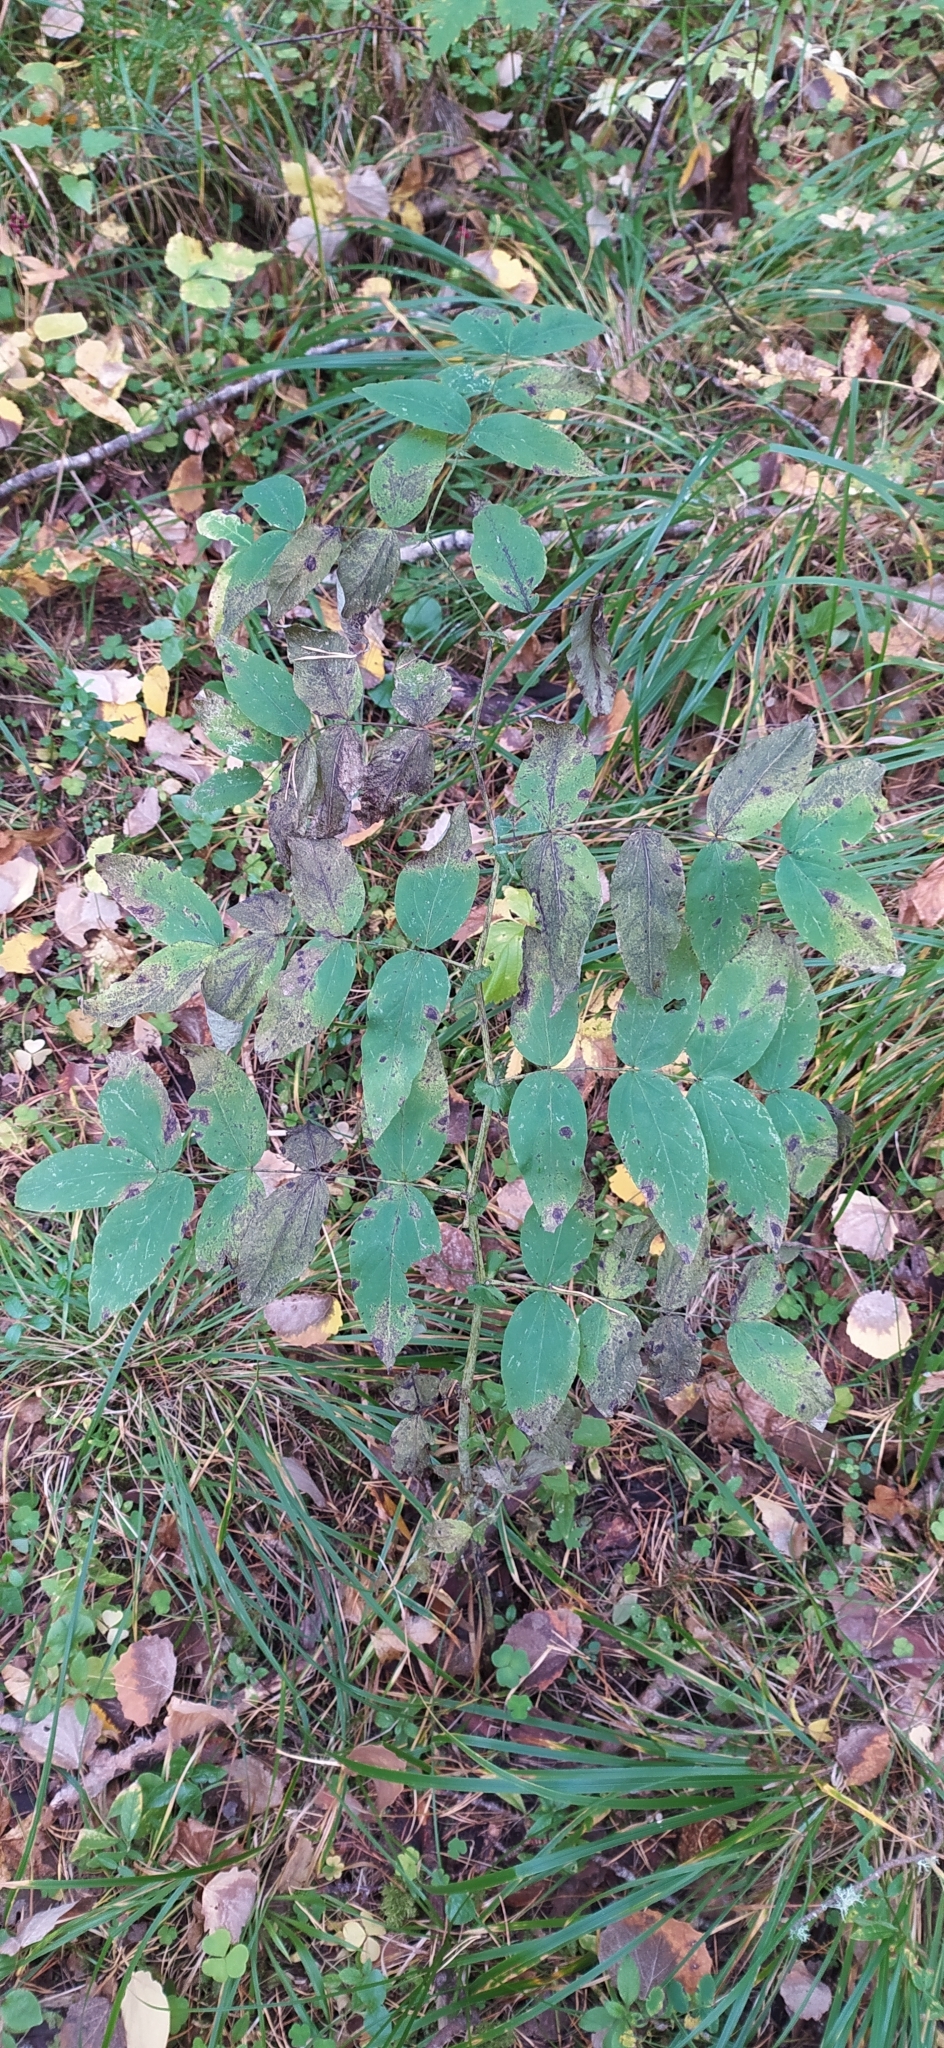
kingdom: Plantae
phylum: Tracheophyta
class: Magnoliopsida
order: Fabales
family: Fabaceae
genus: Lathyrus
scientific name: Lathyrus gmelinii
